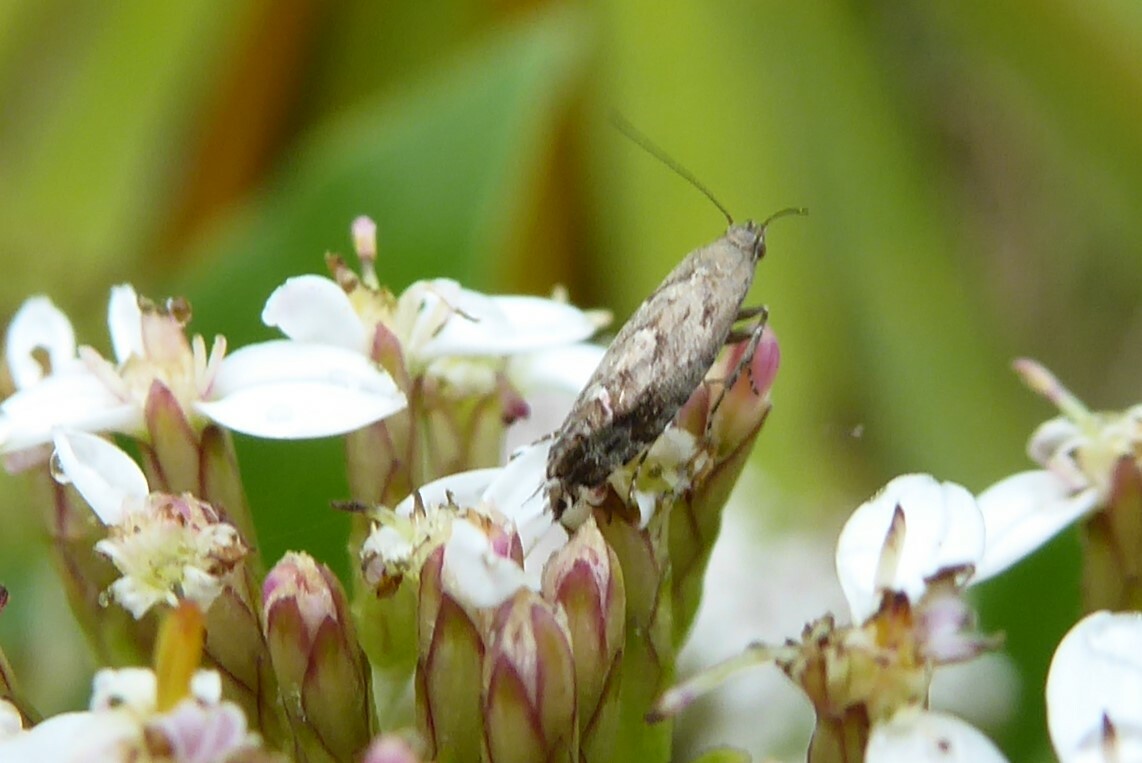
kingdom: Animalia
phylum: Arthropoda
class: Insecta
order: Lepidoptera
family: Glyphipterigidae
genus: Glyphipterix
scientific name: Glyphipterix nephoptera
